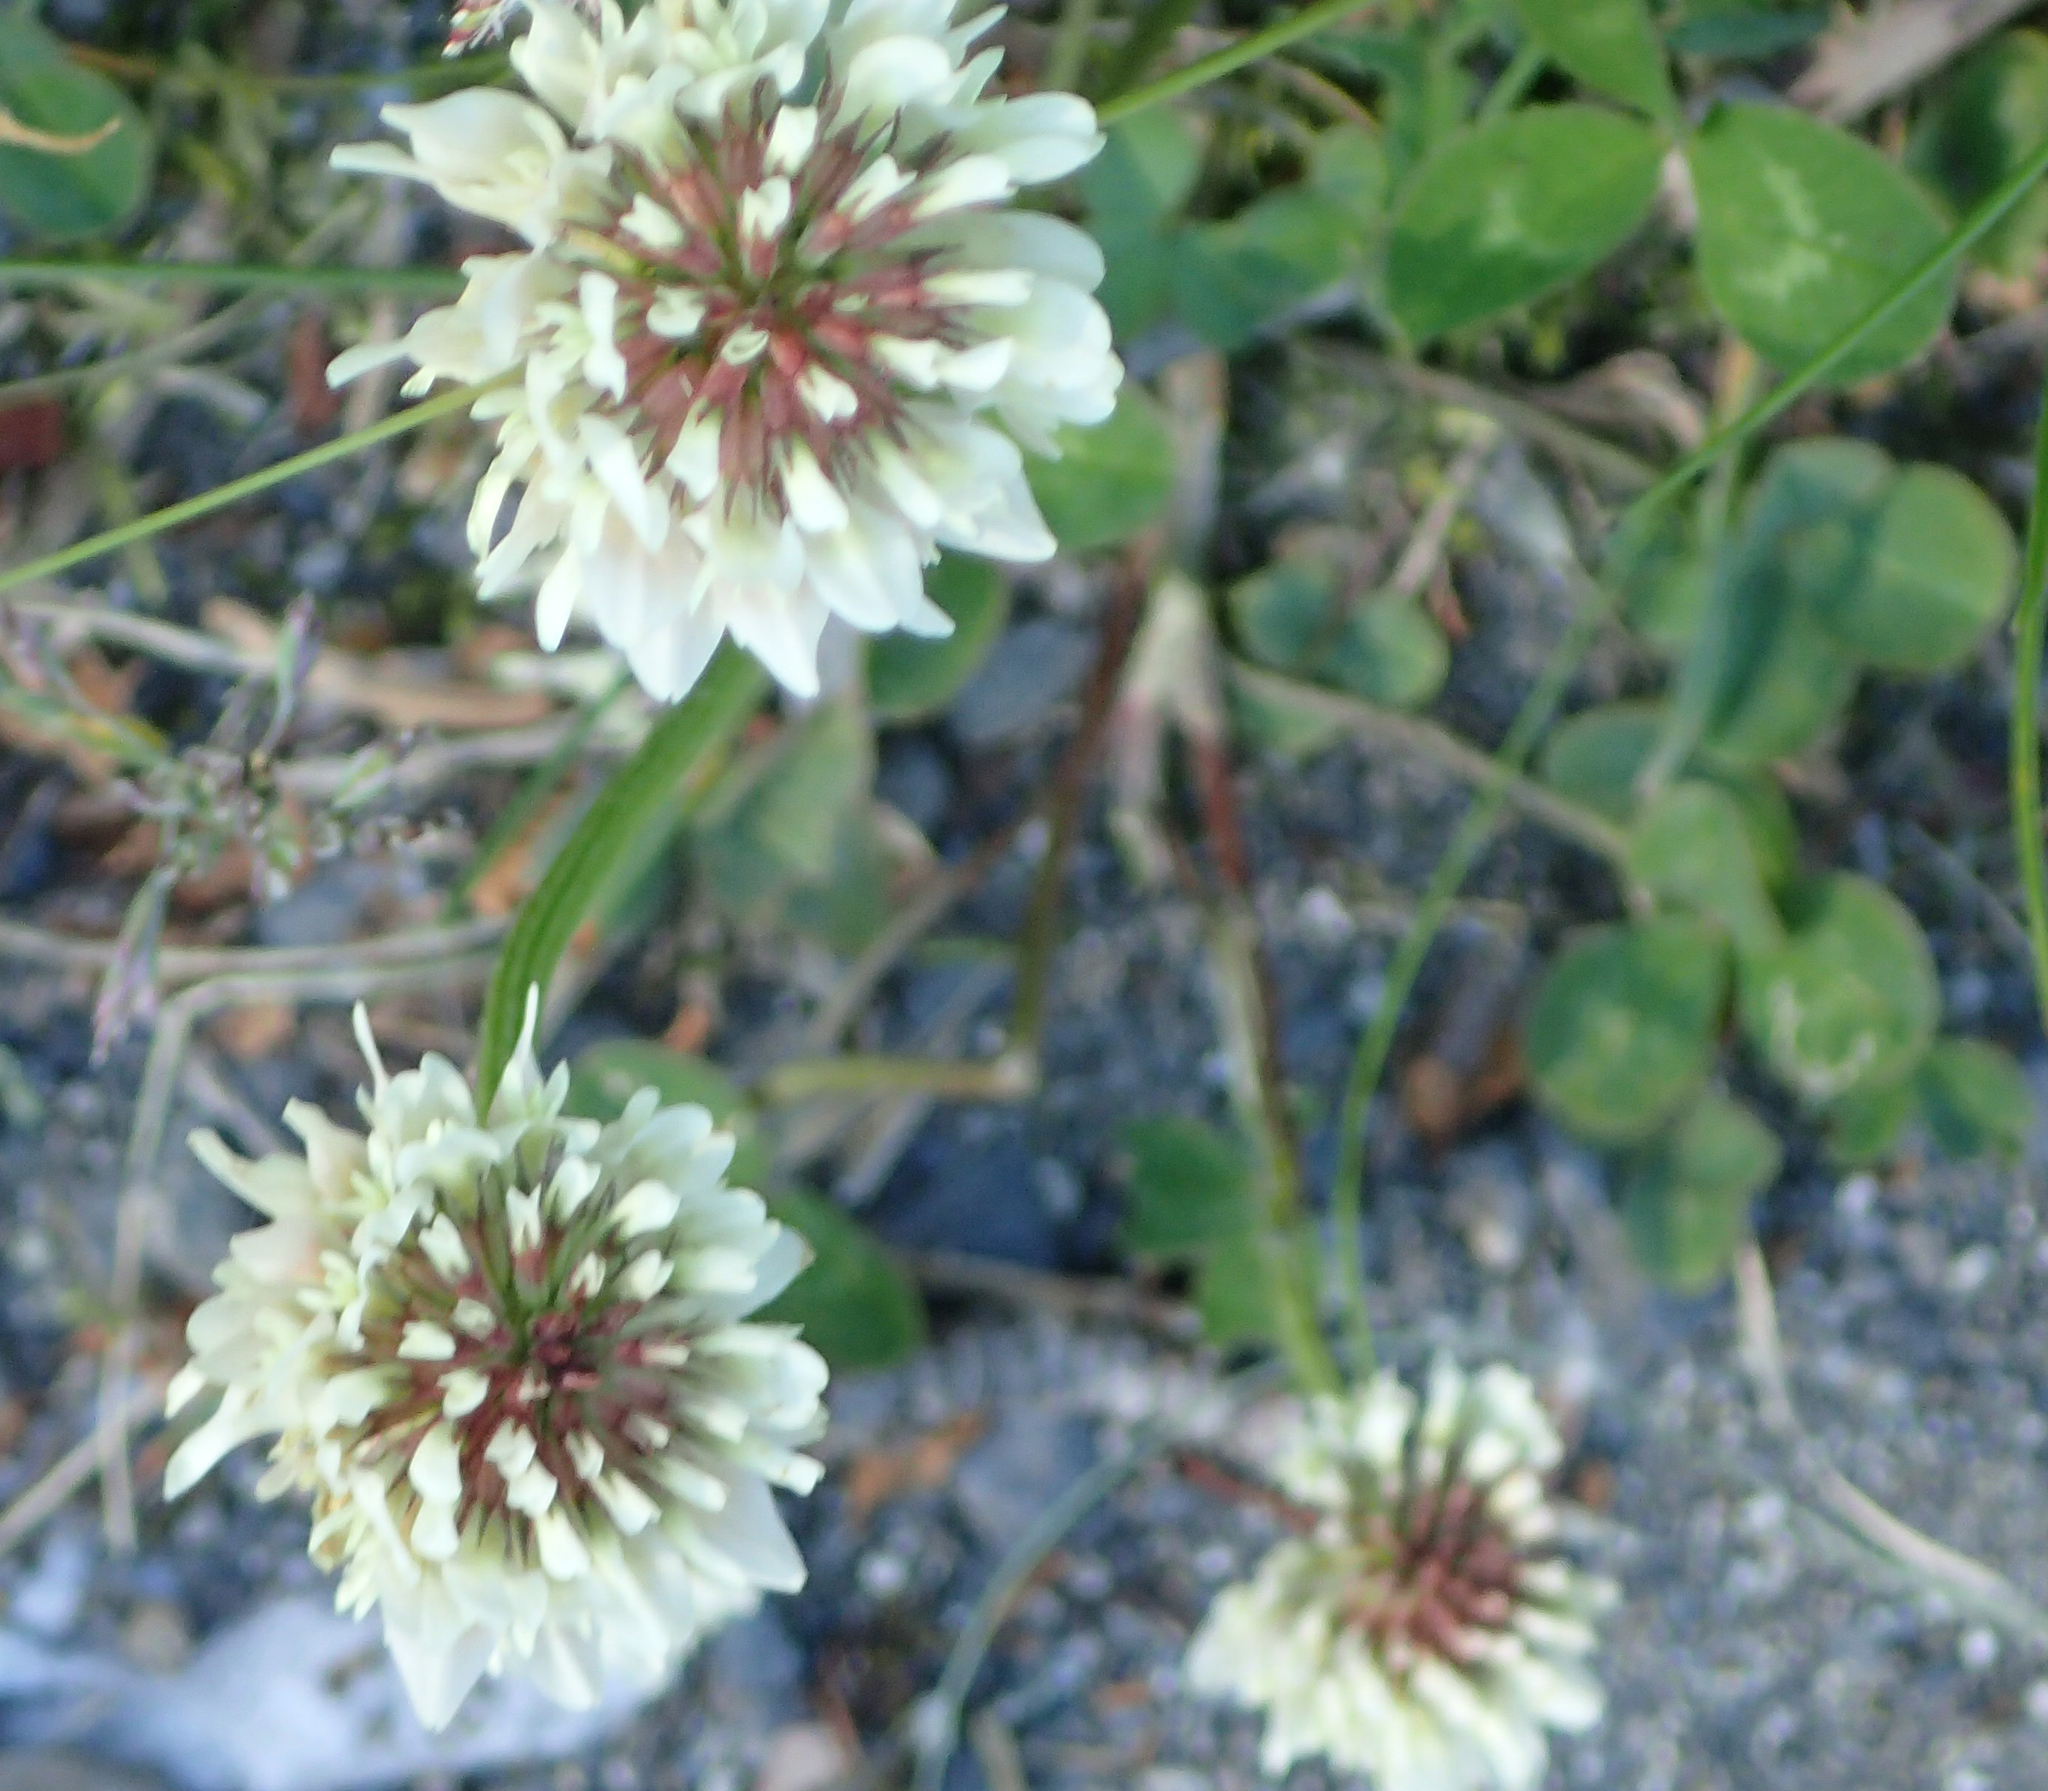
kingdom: Plantae
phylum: Tracheophyta
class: Magnoliopsida
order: Fabales
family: Fabaceae
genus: Trifolium
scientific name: Trifolium repens
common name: White clover
